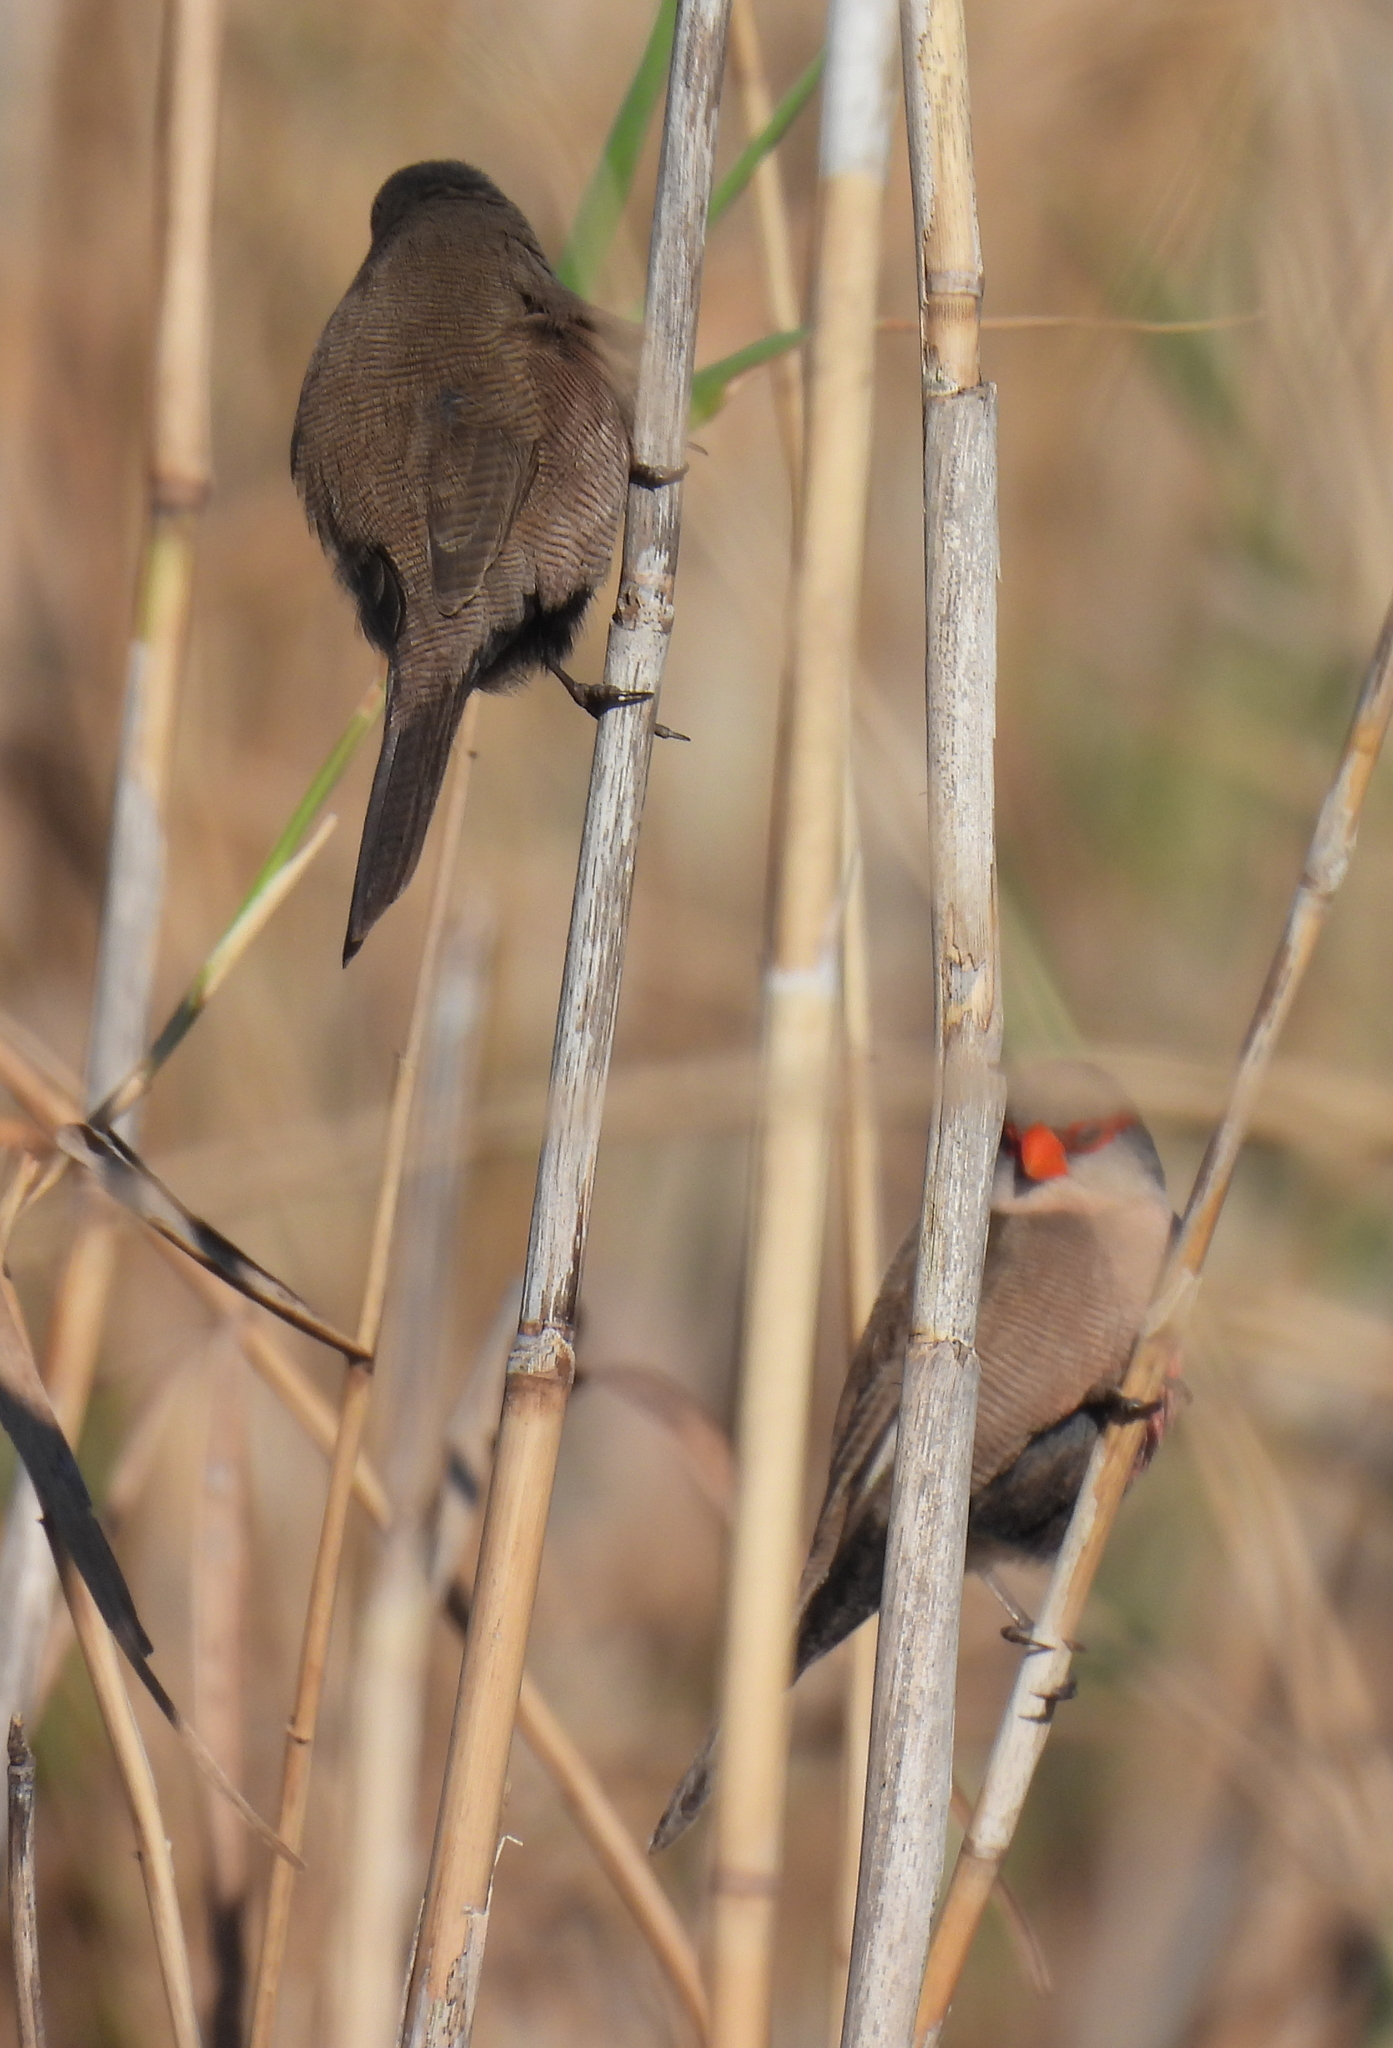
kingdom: Animalia
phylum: Chordata
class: Aves
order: Passeriformes
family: Estrildidae
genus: Estrilda
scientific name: Estrilda astrild
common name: Common waxbill
